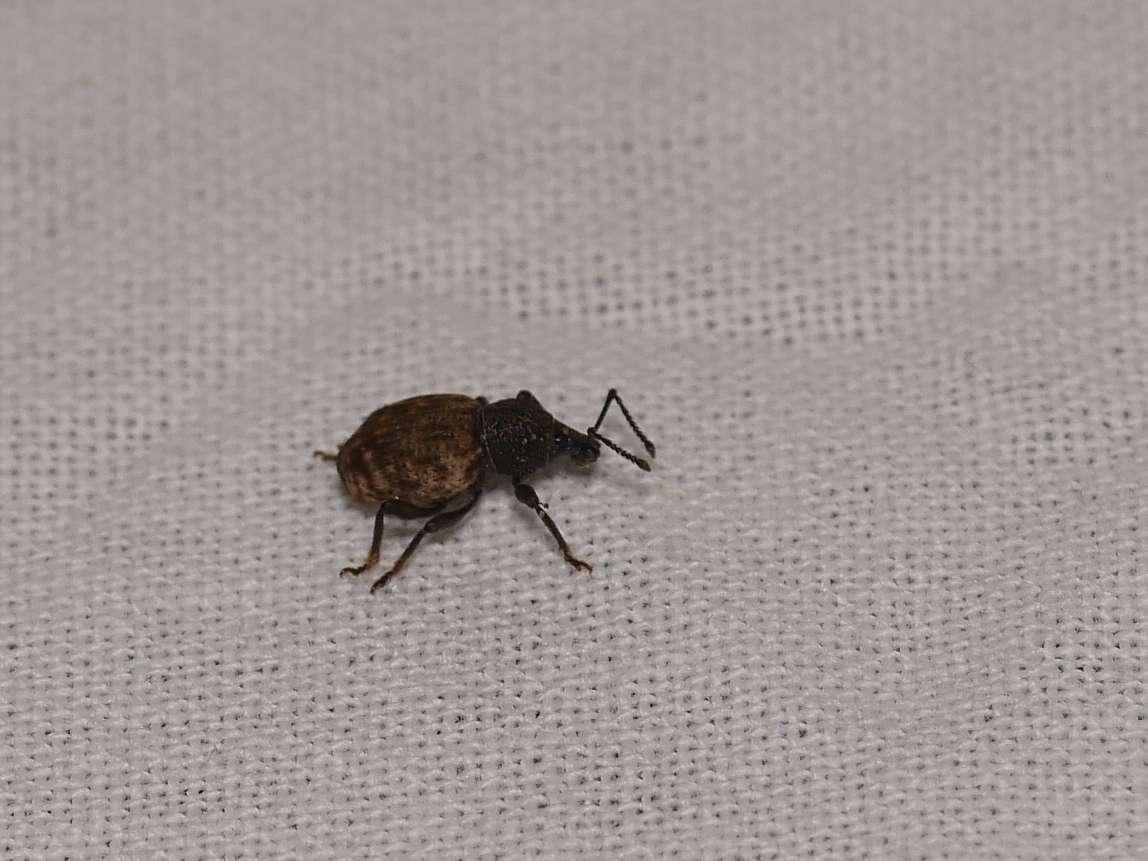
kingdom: Animalia
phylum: Arthropoda
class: Insecta
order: Coleoptera
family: Curculionidae
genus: Otiorhynchus
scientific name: Otiorhynchus raucus
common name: Weevil
